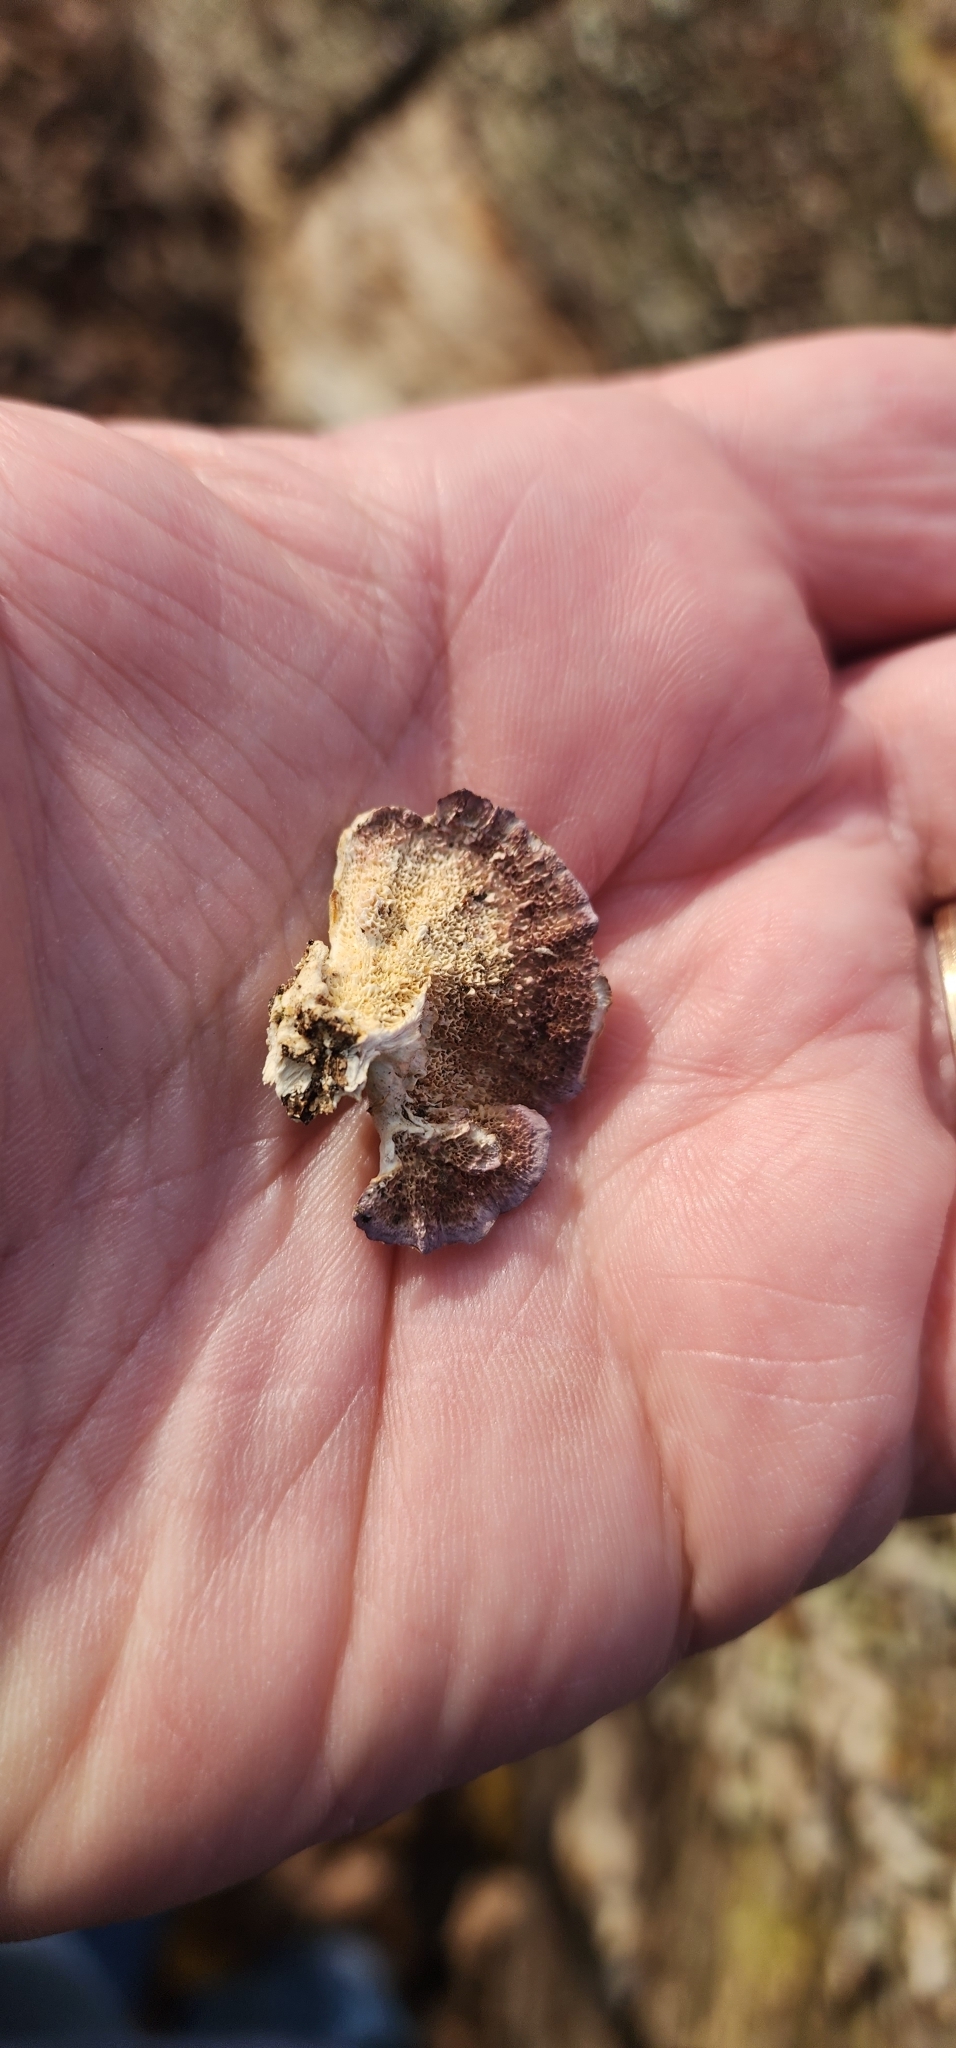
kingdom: Fungi
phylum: Basidiomycota
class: Agaricomycetes
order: Hymenochaetales
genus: Trichaptum
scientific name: Trichaptum biforme
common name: Violet-toothed polypore
